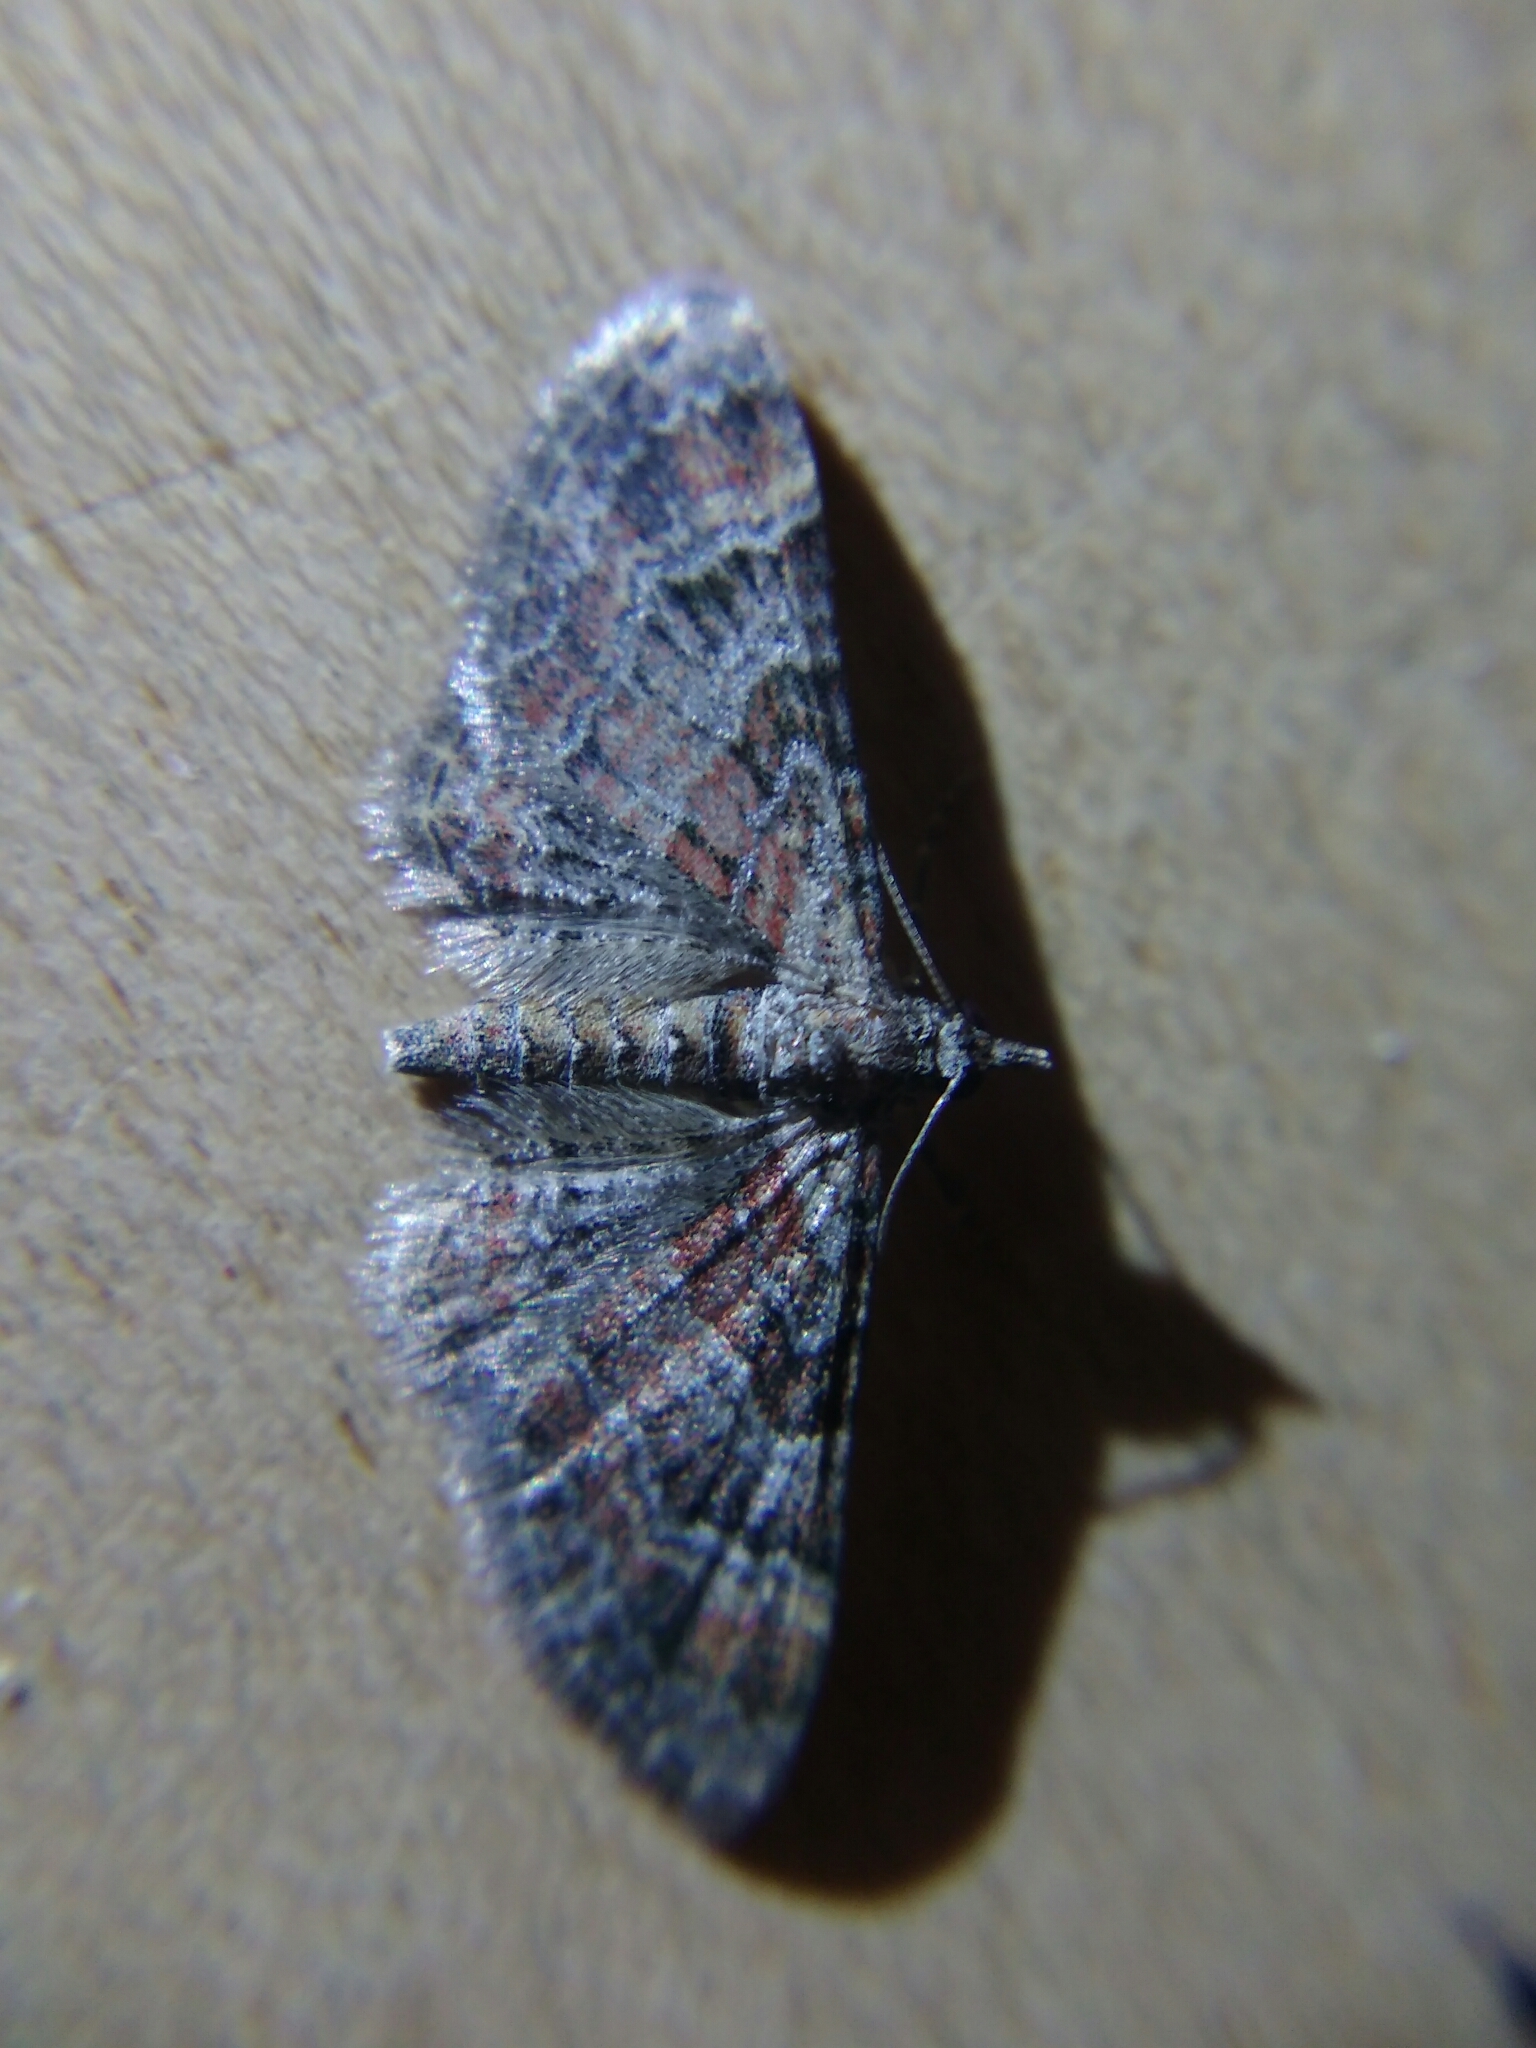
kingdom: Animalia
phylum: Arthropoda
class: Insecta
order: Lepidoptera
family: Geometridae
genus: Gymnoscelis
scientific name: Gymnoscelis rufifasciata
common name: Double-striped pug
